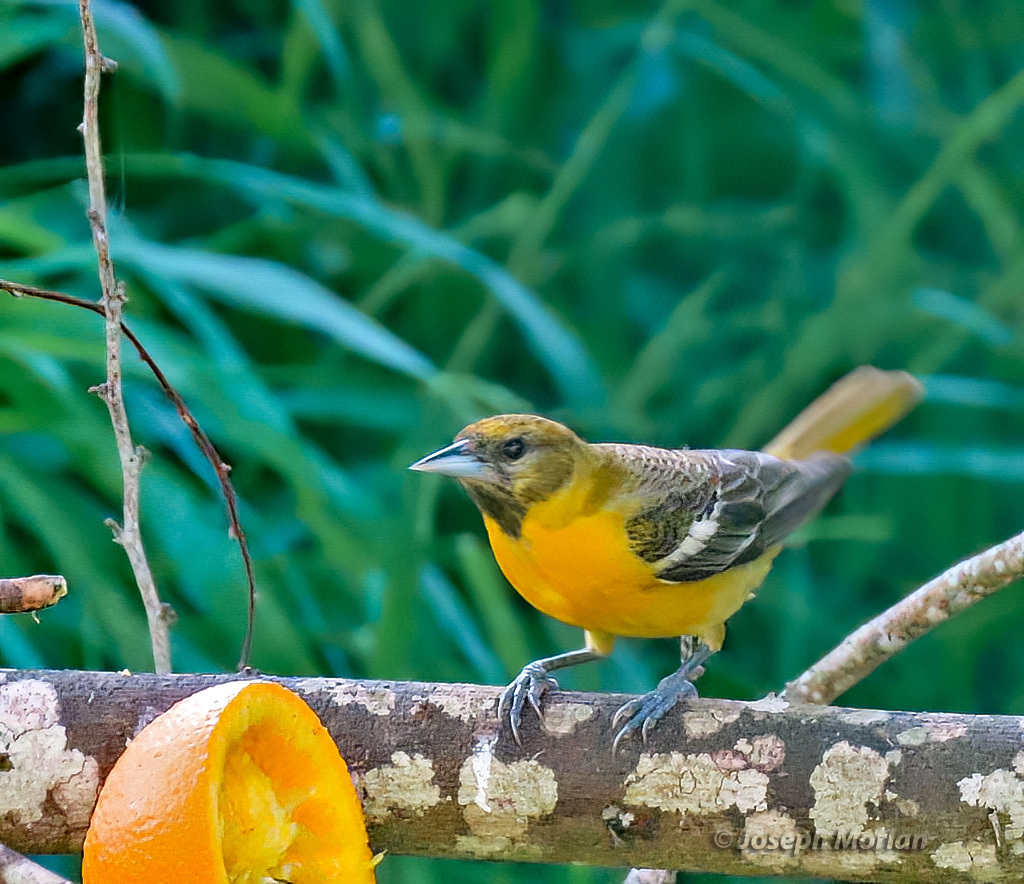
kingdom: Animalia
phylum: Chordata
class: Aves
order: Passeriformes
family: Icteridae
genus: Icterus
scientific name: Icterus galbula
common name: Baltimore oriole
